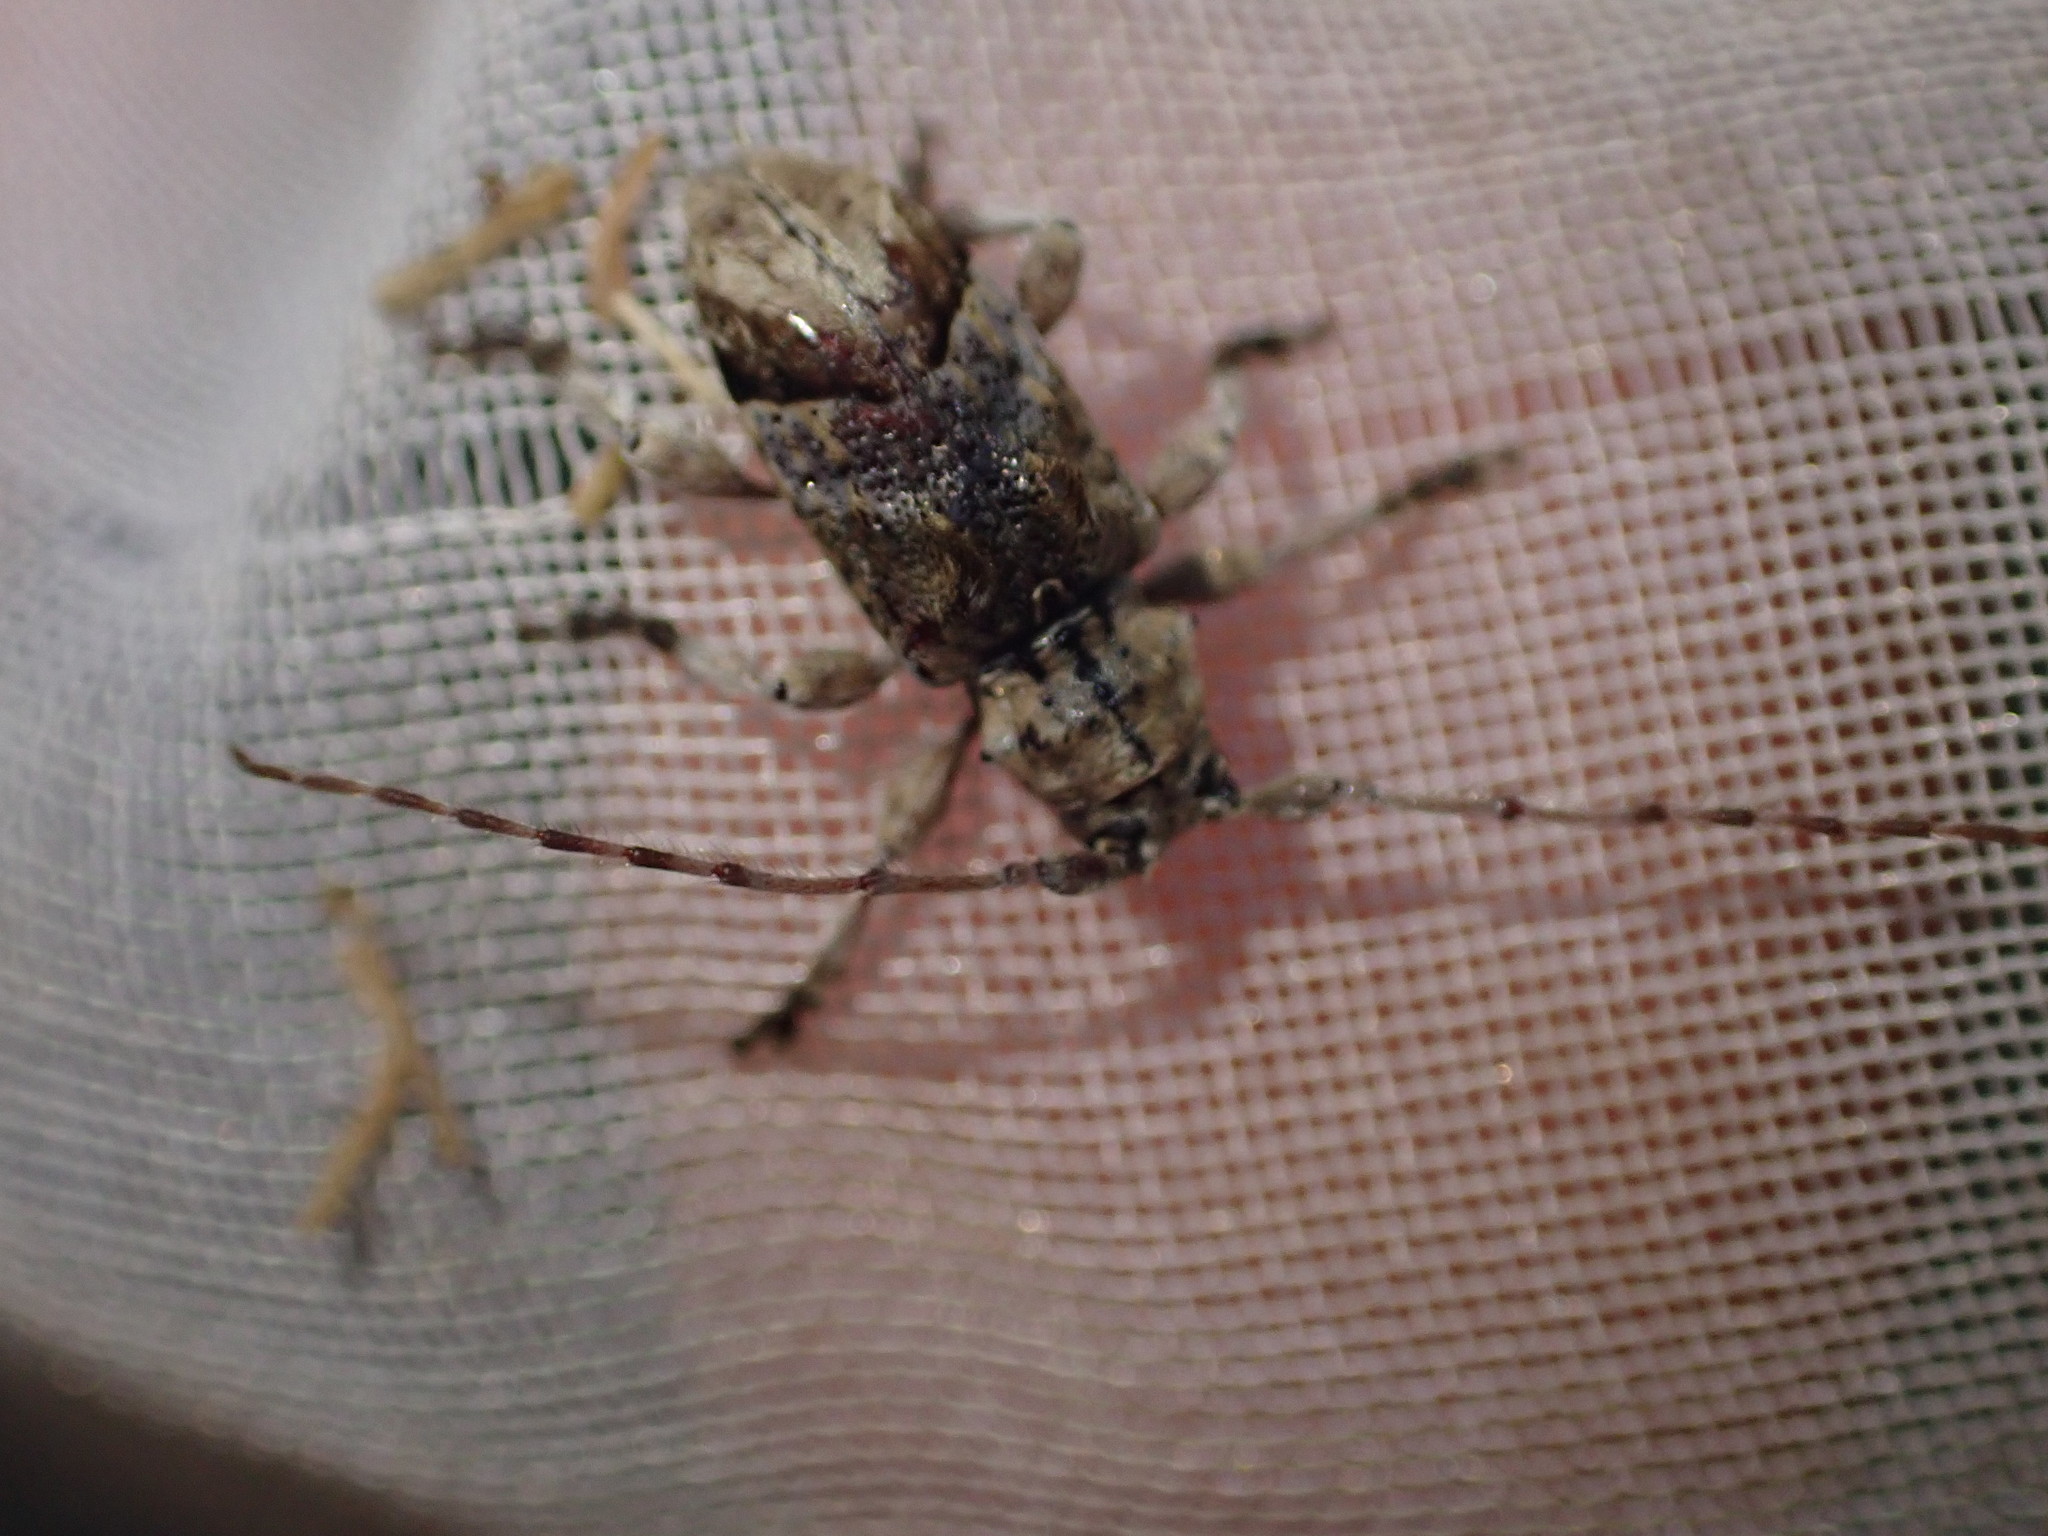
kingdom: Animalia
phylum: Arthropoda
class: Insecta
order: Coleoptera
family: Cerambycidae
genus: Hybolasius
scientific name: Hybolasius cristus
